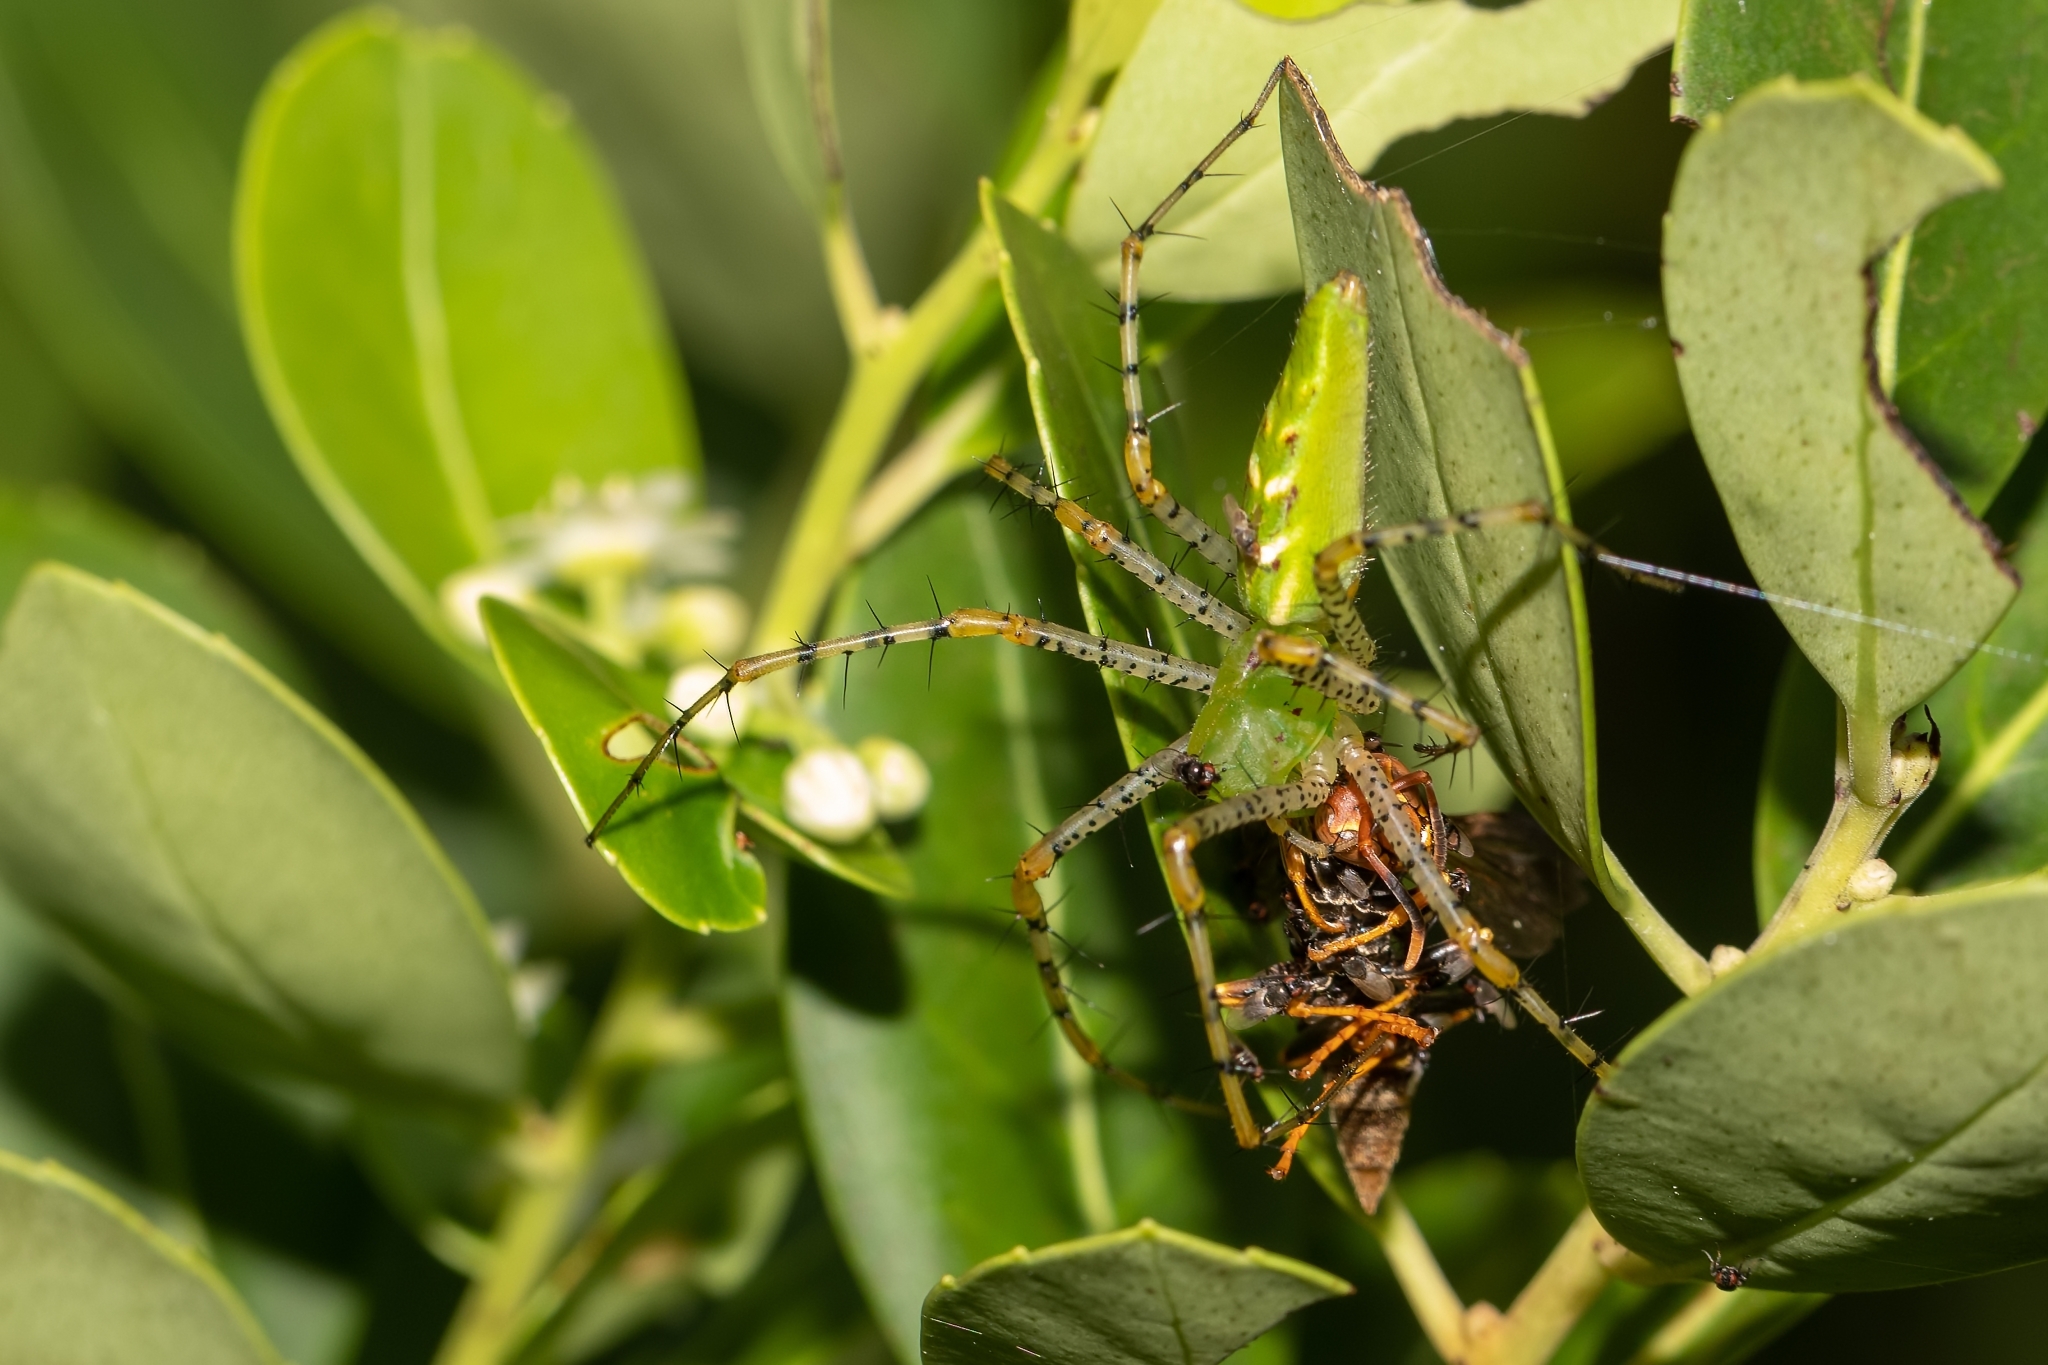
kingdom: Animalia
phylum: Arthropoda
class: Arachnida
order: Araneae
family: Oxyopidae
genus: Peucetia
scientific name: Peucetia viridans
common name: Lynx spiders
